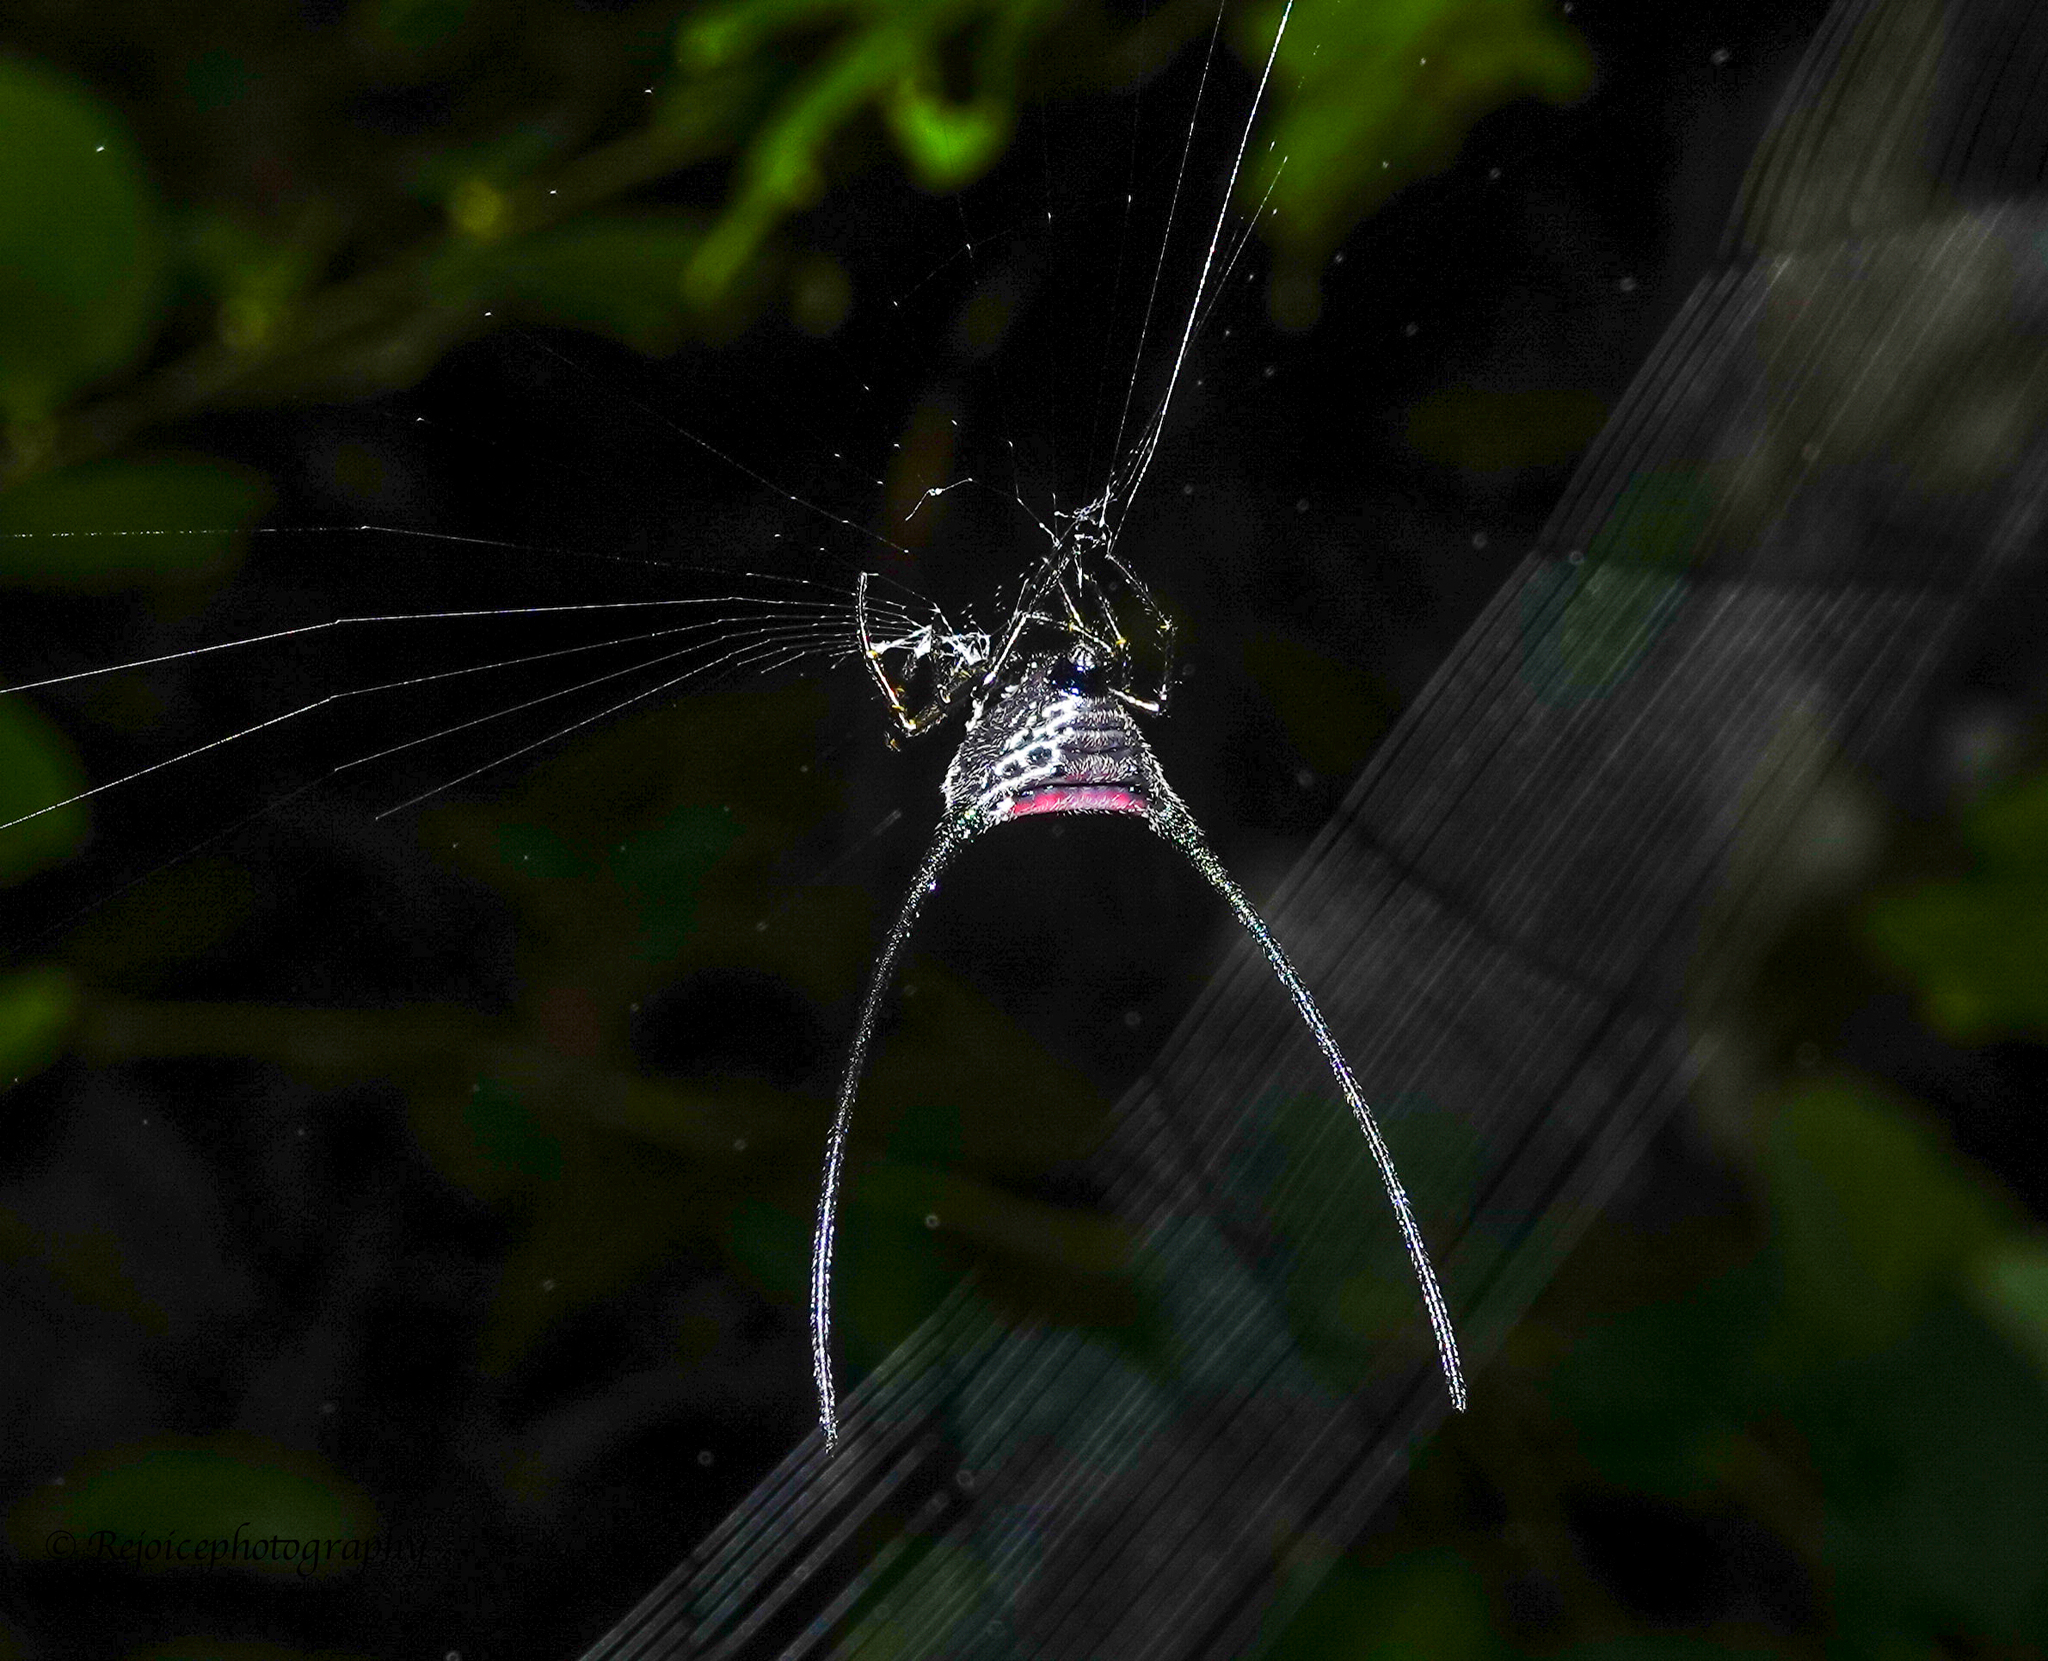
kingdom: Animalia
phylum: Arthropoda
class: Arachnida
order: Araneae
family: Araneidae
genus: Macracantha
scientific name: Macracantha arcuata
